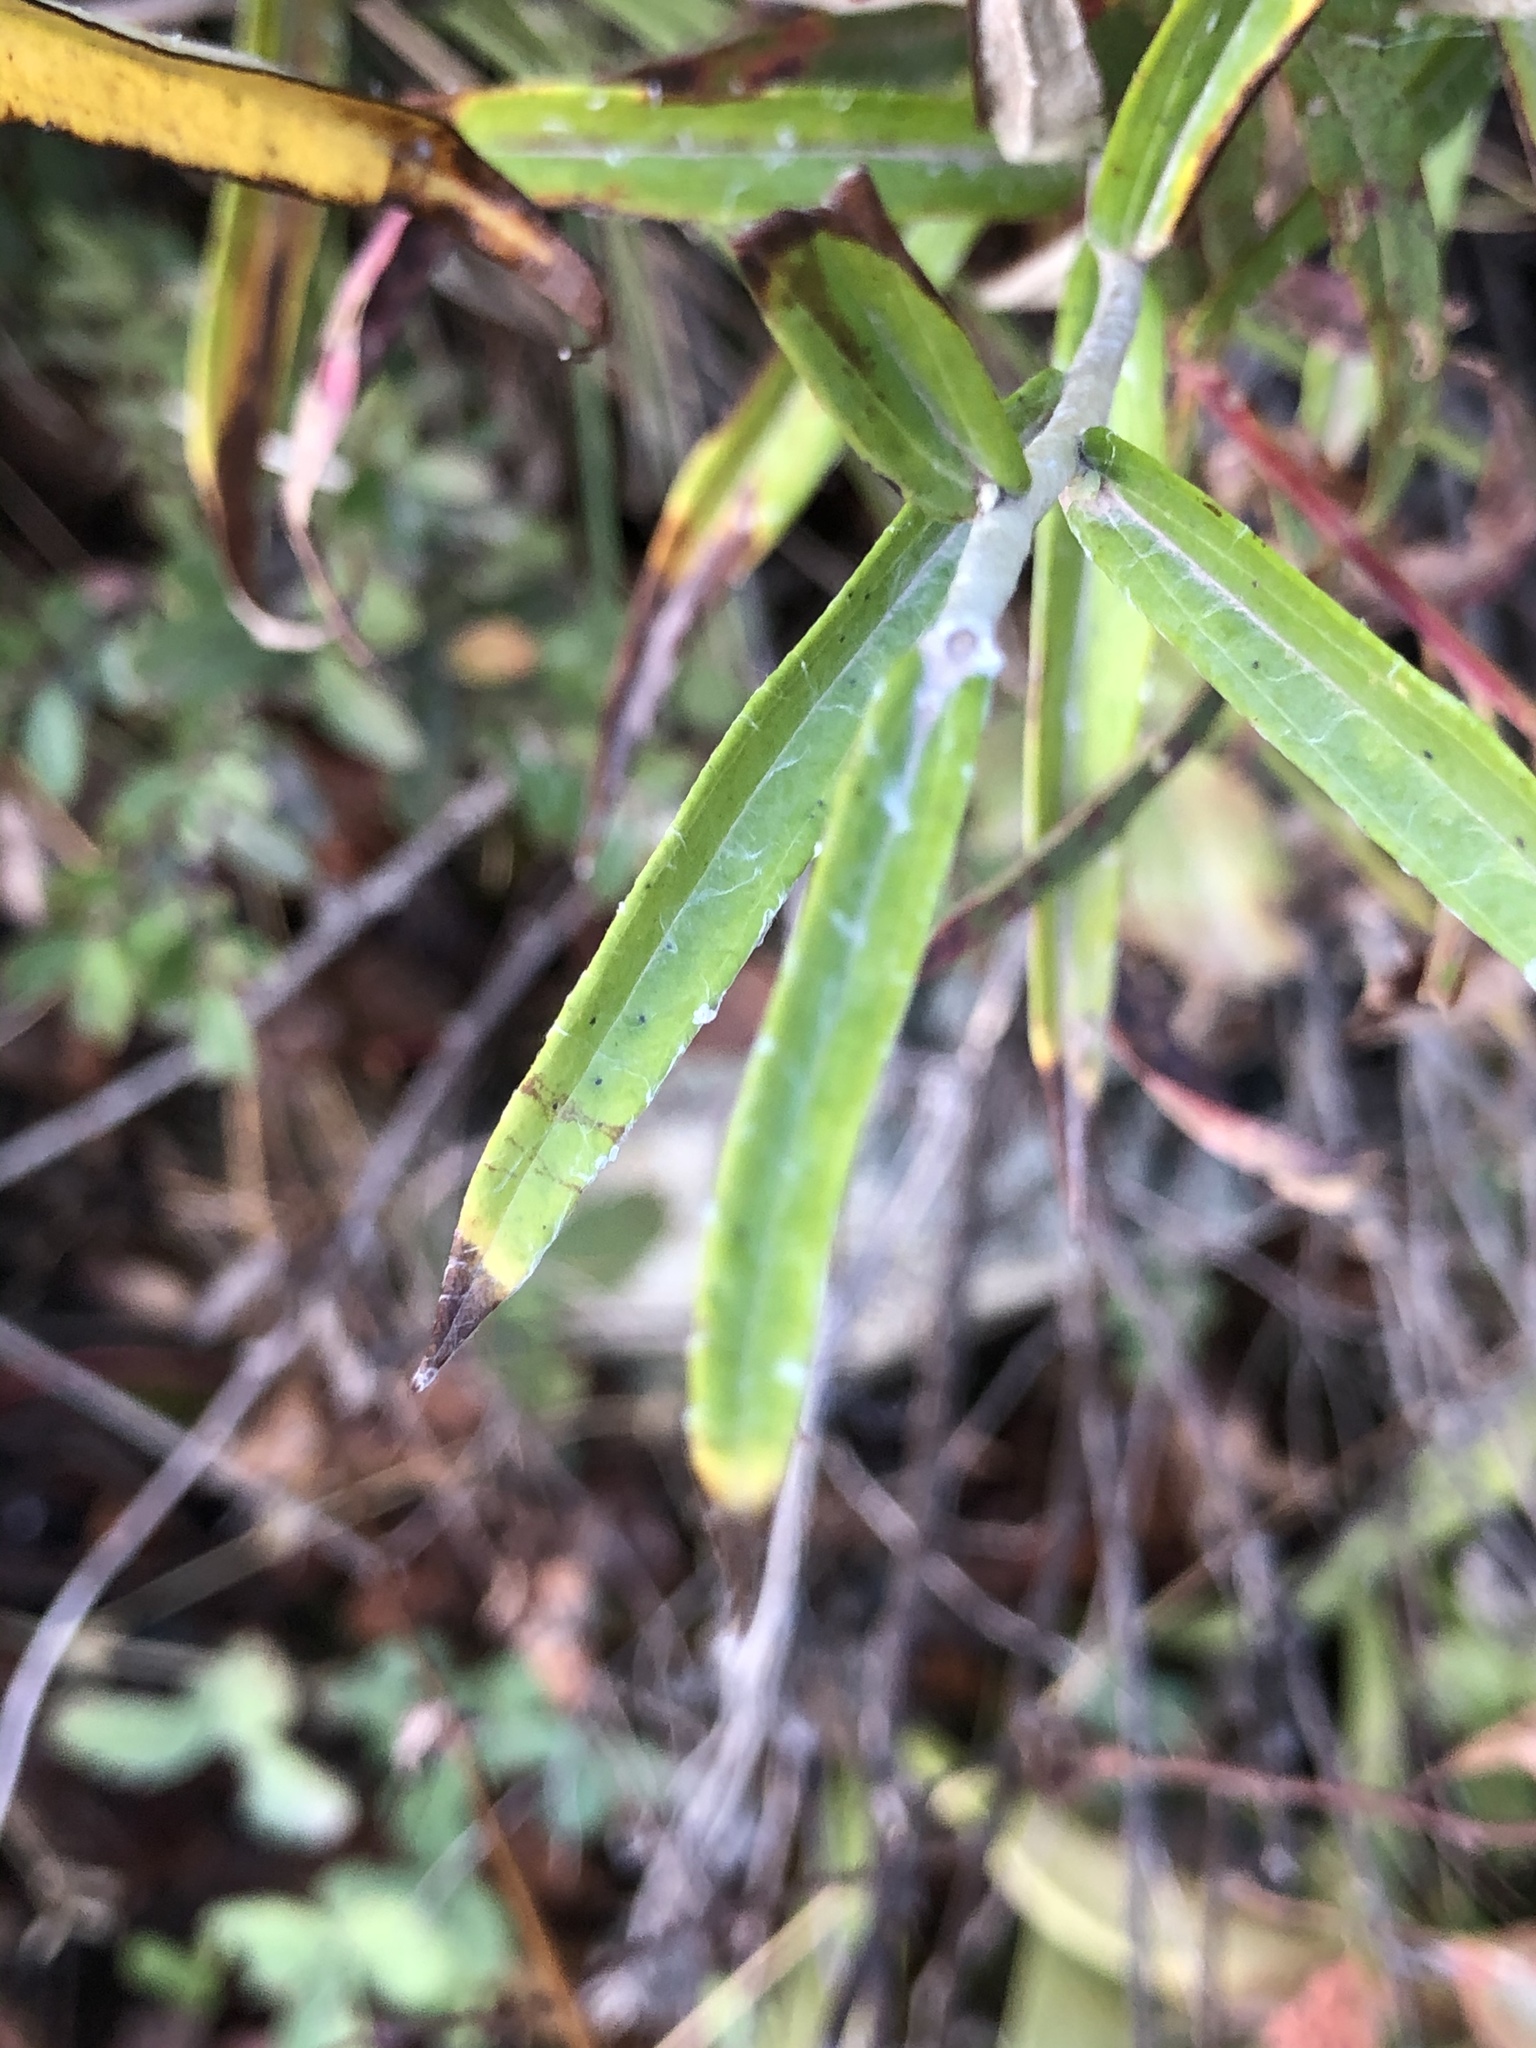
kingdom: Plantae
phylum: Tracheophyta
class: Magnoliopsida
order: Asterales
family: Asteraceae
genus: Anaphalis
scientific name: Anaphalis margaritacea
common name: Pearly everlasting
